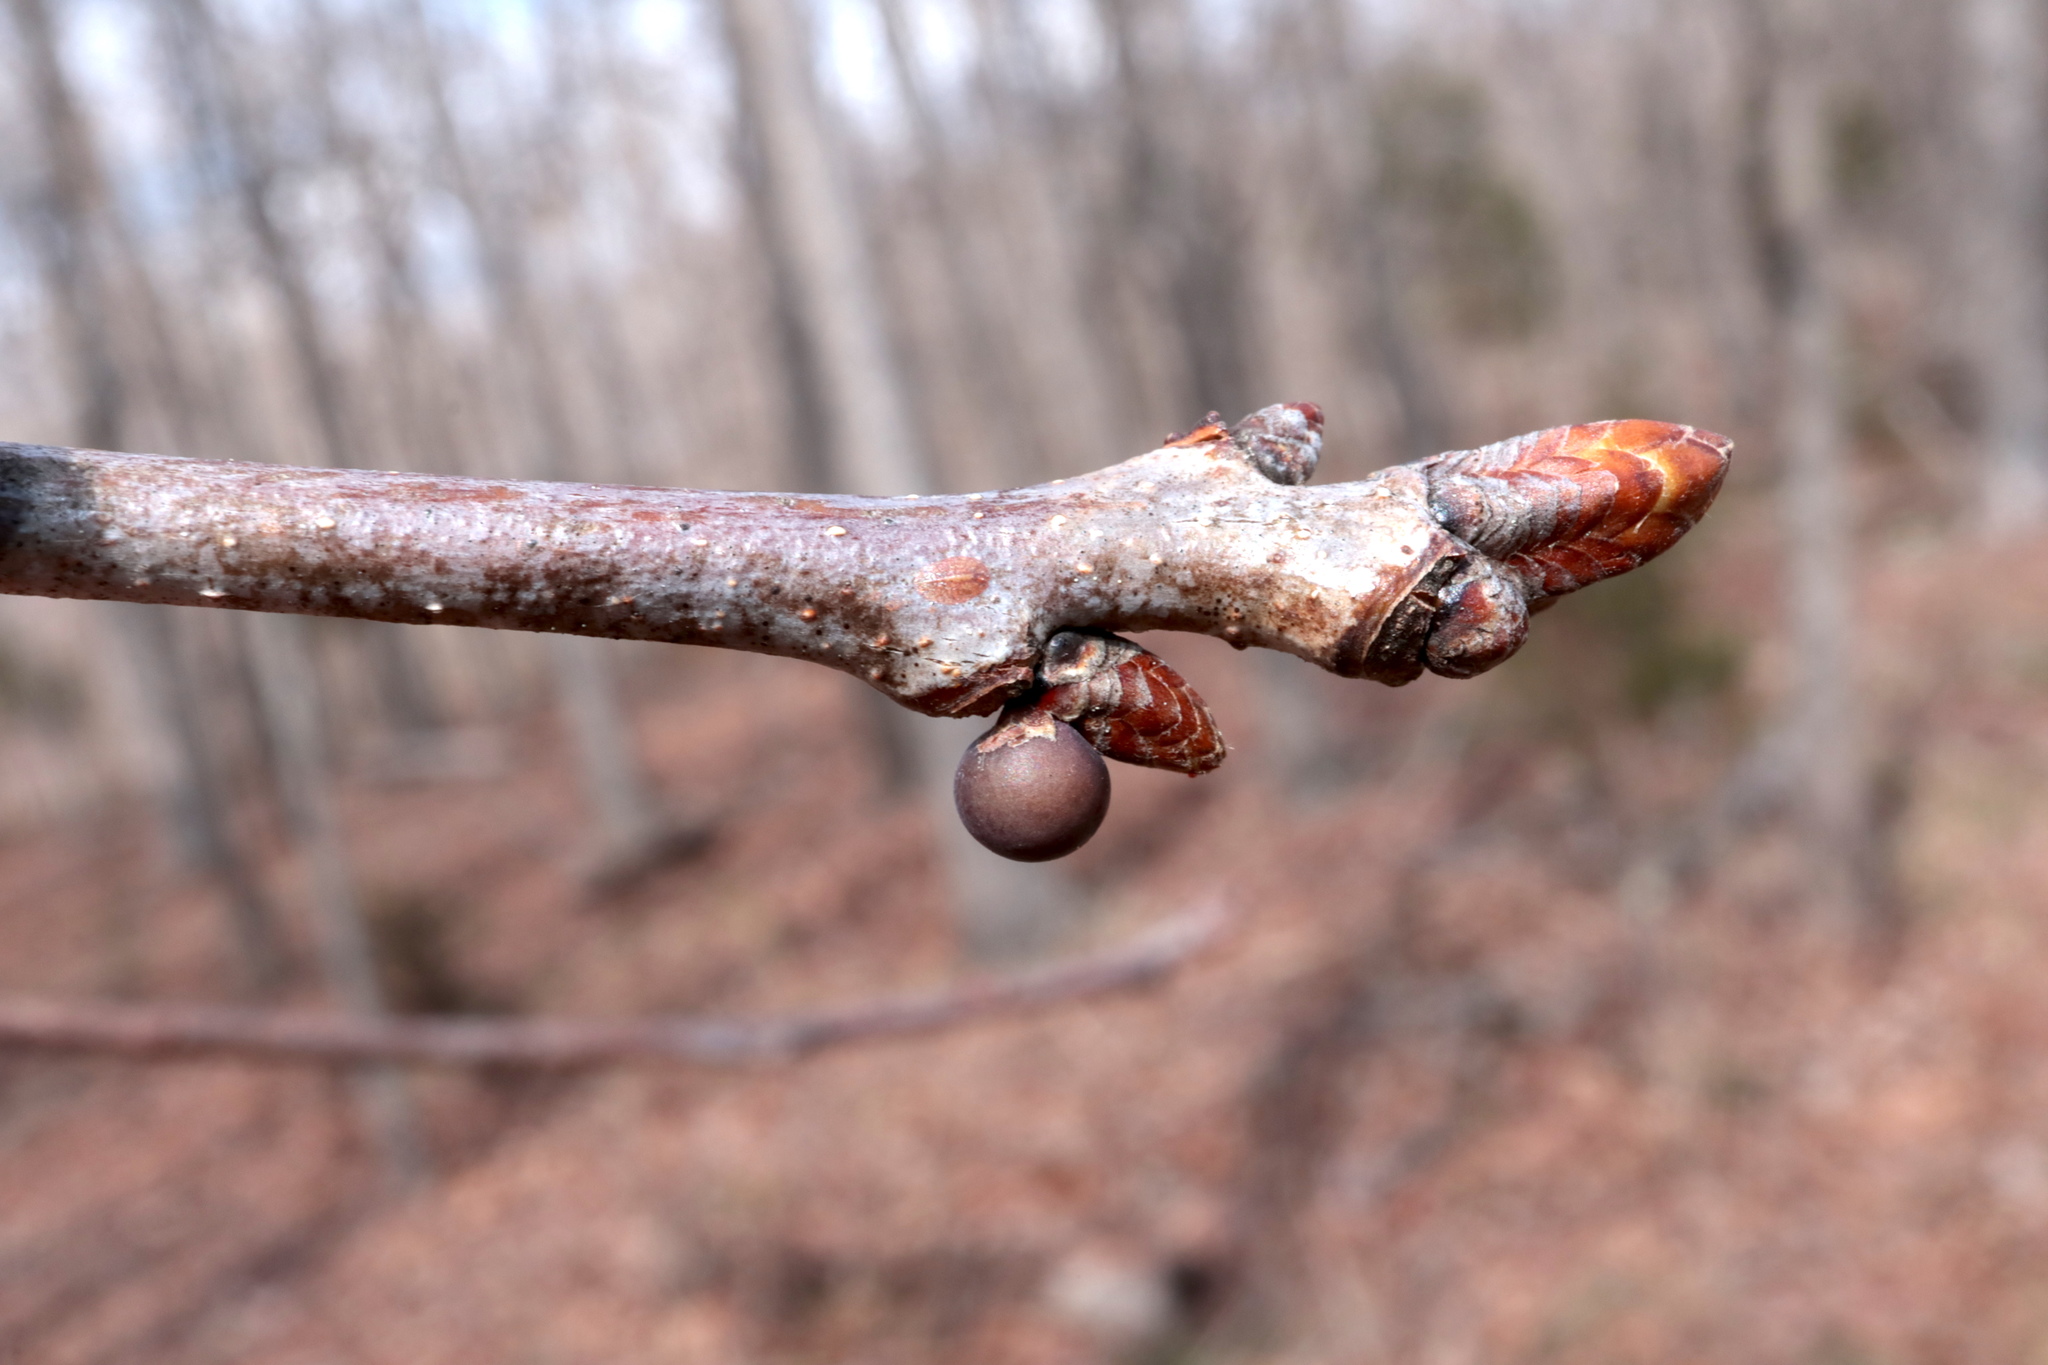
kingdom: Animalia
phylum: Arthropoda
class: Insecta
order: Hymenoptera
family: Cynipidae
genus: Neuroterus
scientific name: Neuroterus
